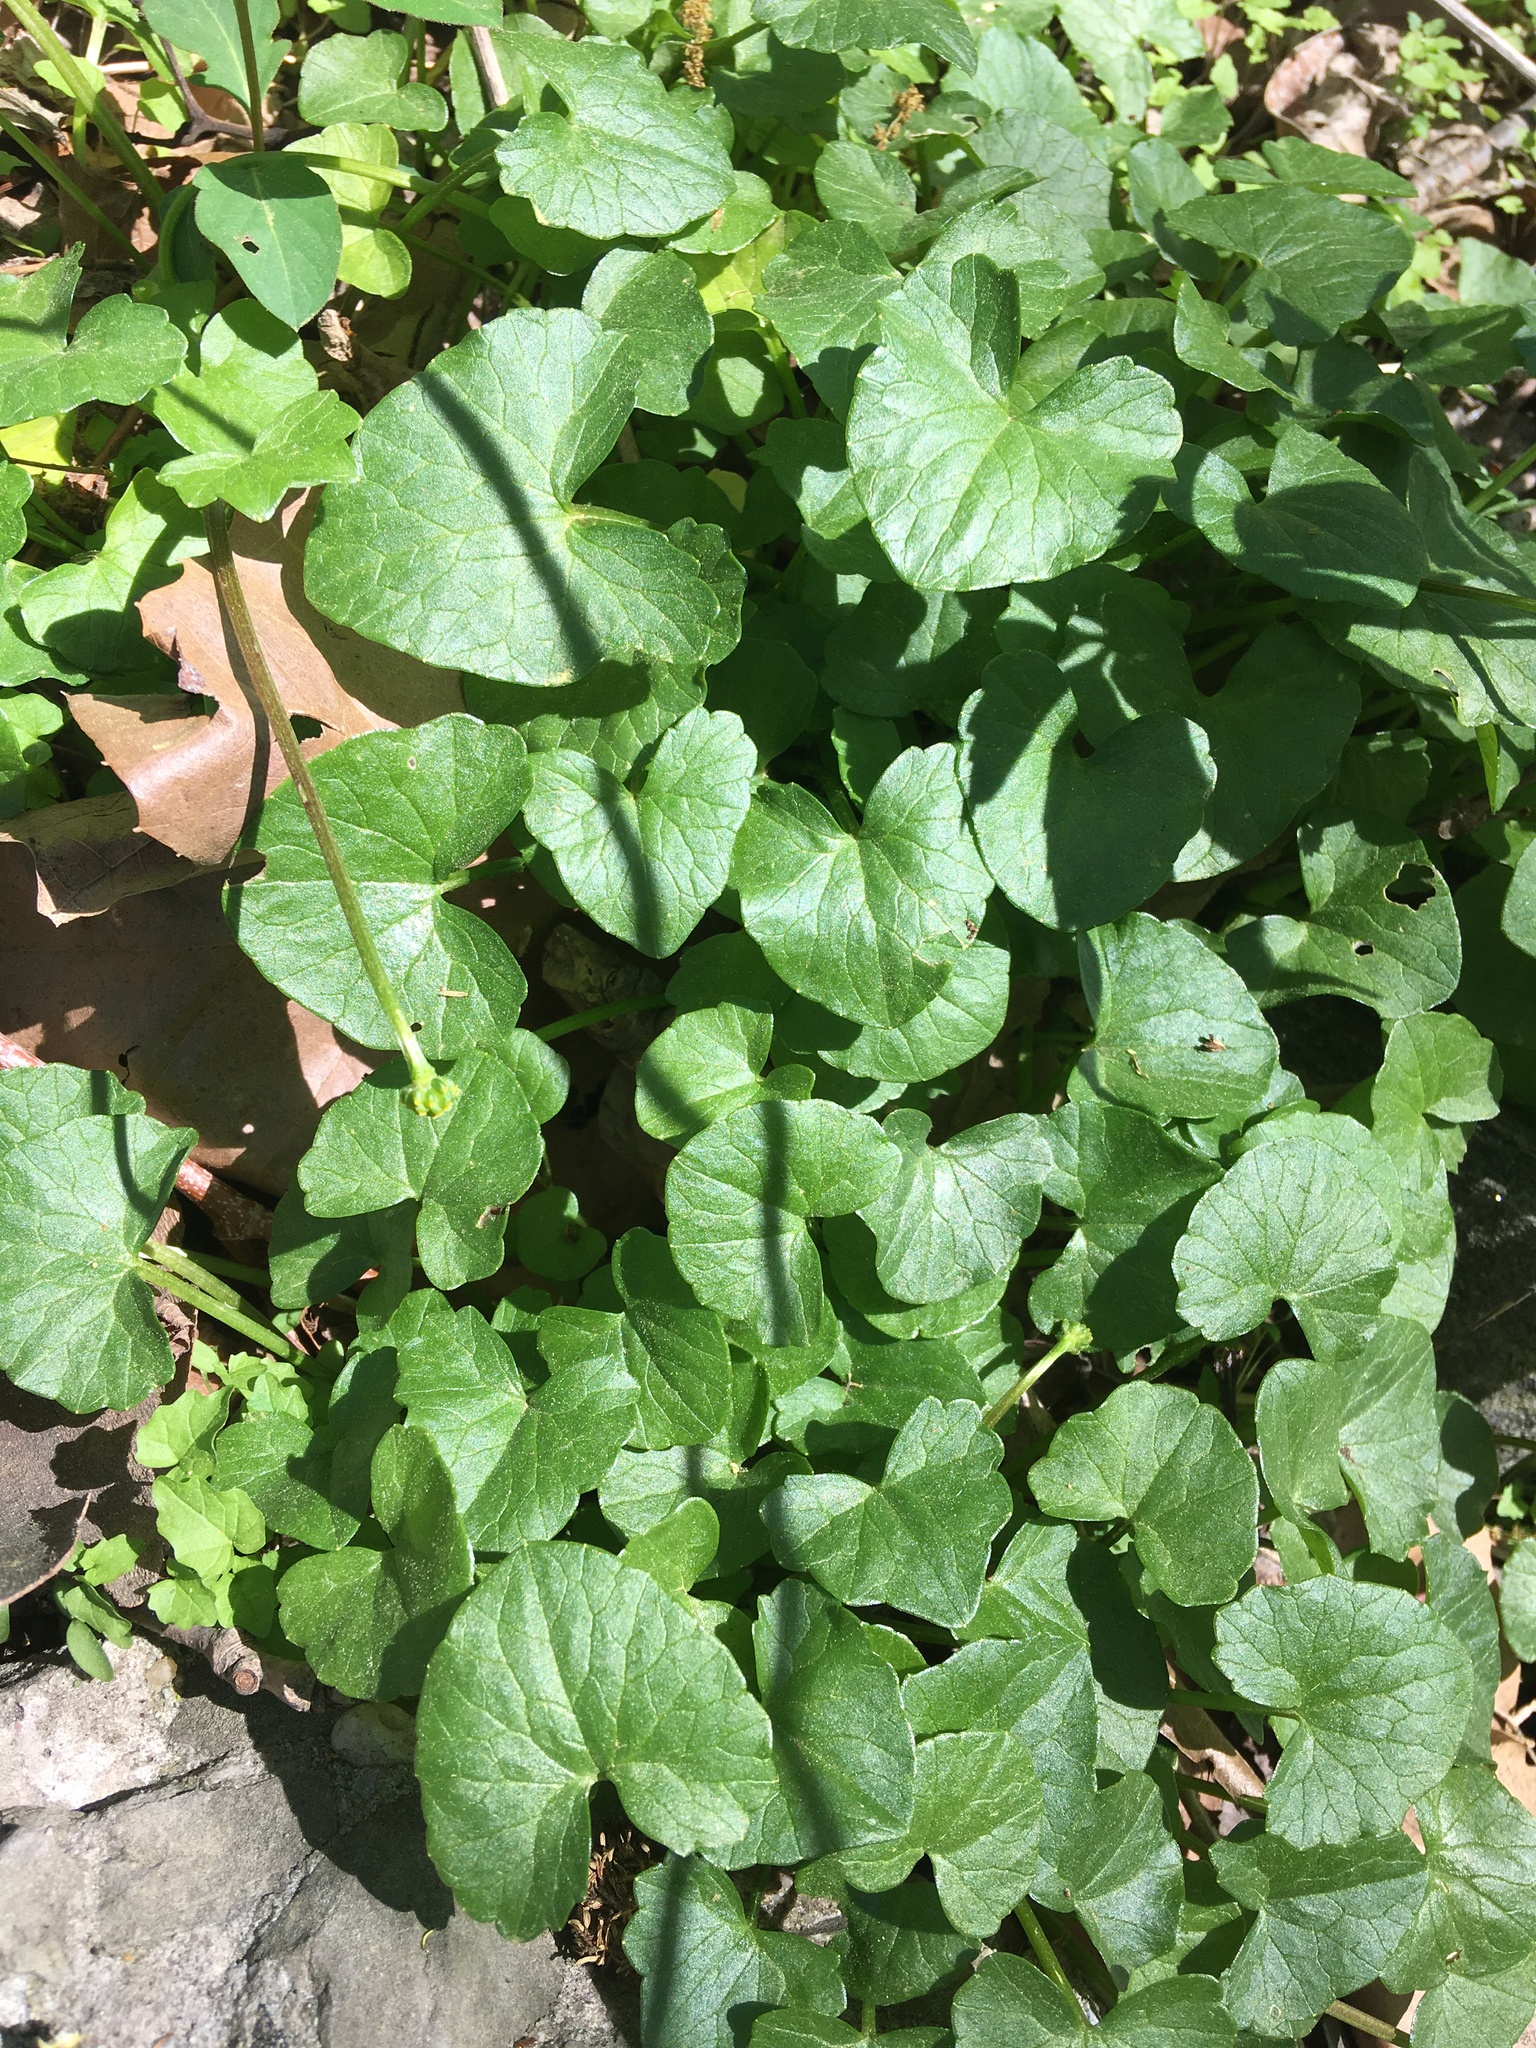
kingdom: Plantae
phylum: Tracheophyta
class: Magnoliopsida
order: Ranunculales
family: Ranunculaceae
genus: Ficaria
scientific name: Ficaria verna
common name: Lesser celandine
